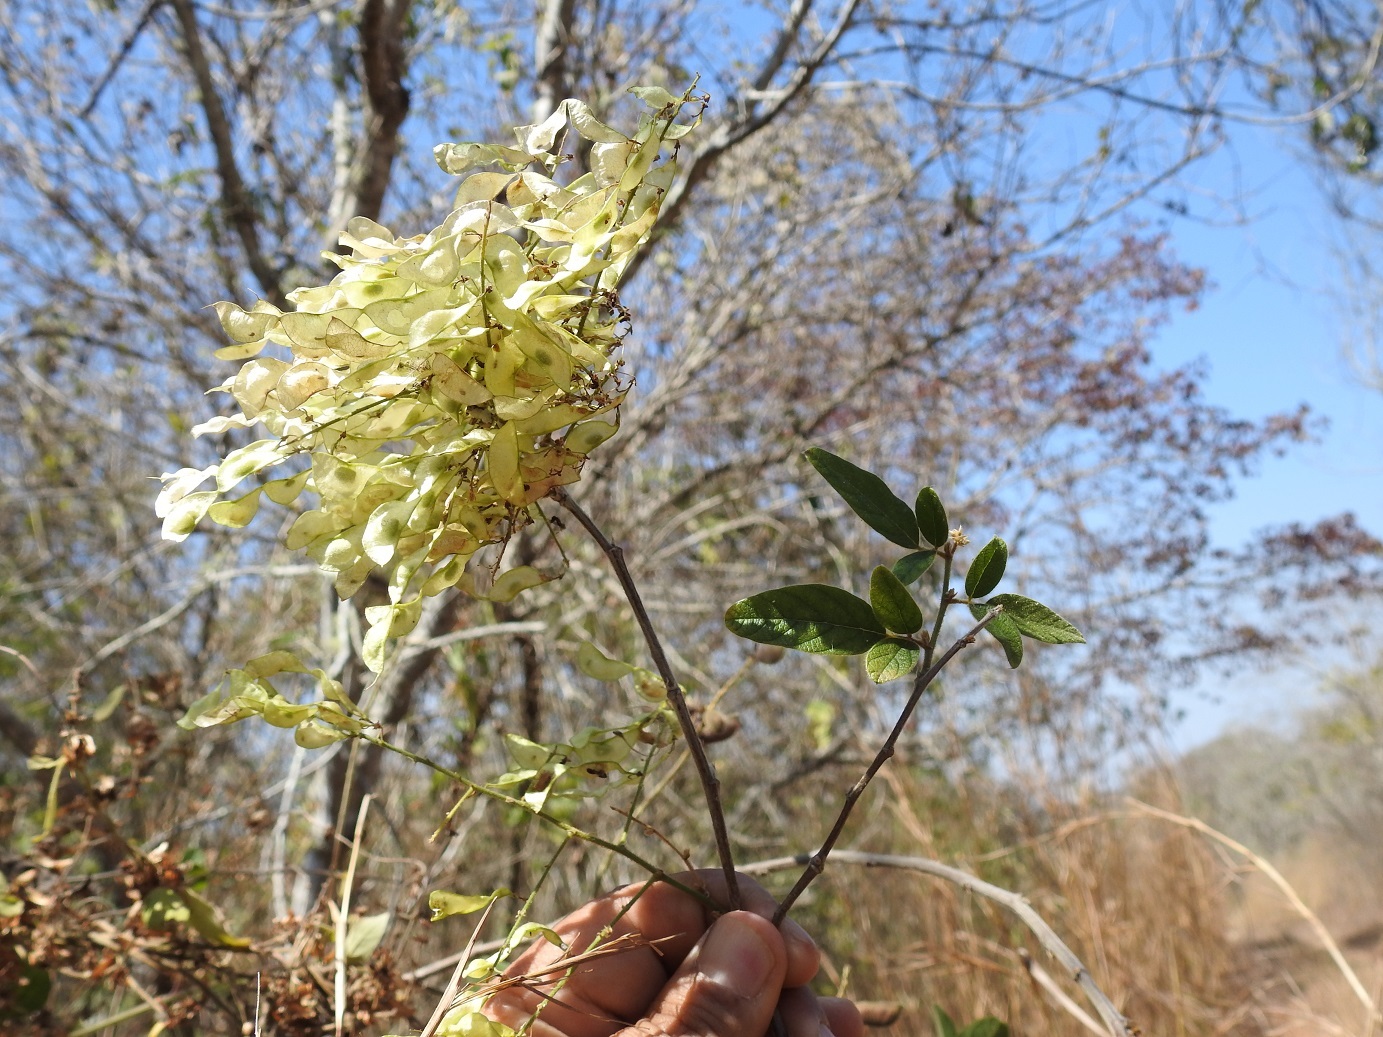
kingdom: Plantae
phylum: Tracheophyta
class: Magnoliopsida
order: Fabales
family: Fabaceae
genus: Desmodium
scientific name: Desmodium purpusii
